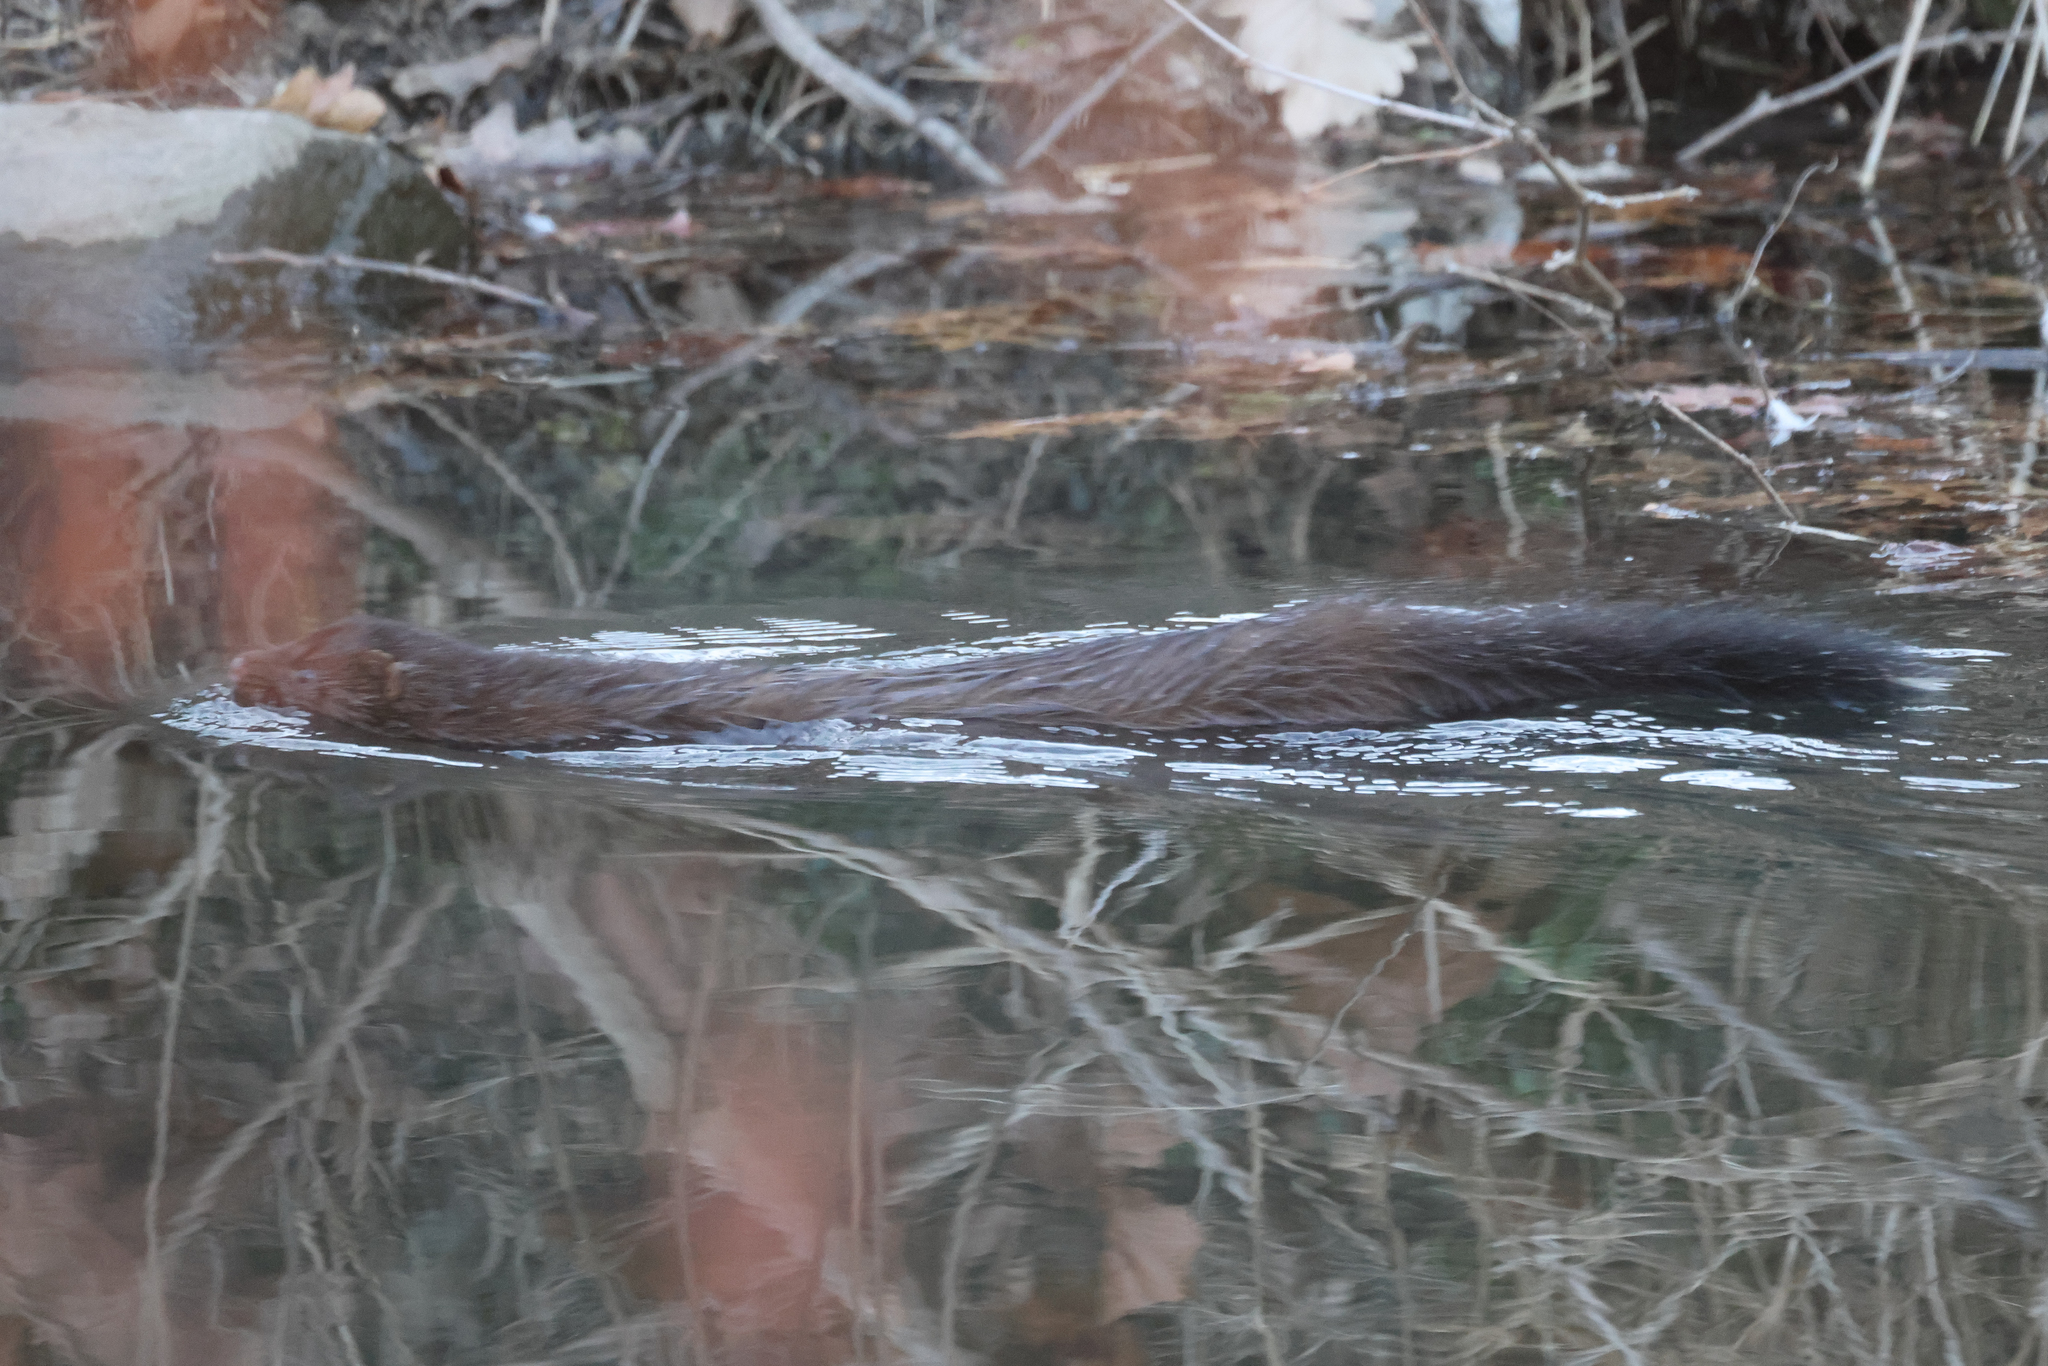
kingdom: Animalia
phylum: Chordata
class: Mammalia
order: Carnivora
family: Mustelidae
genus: Mustela
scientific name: Mustela
